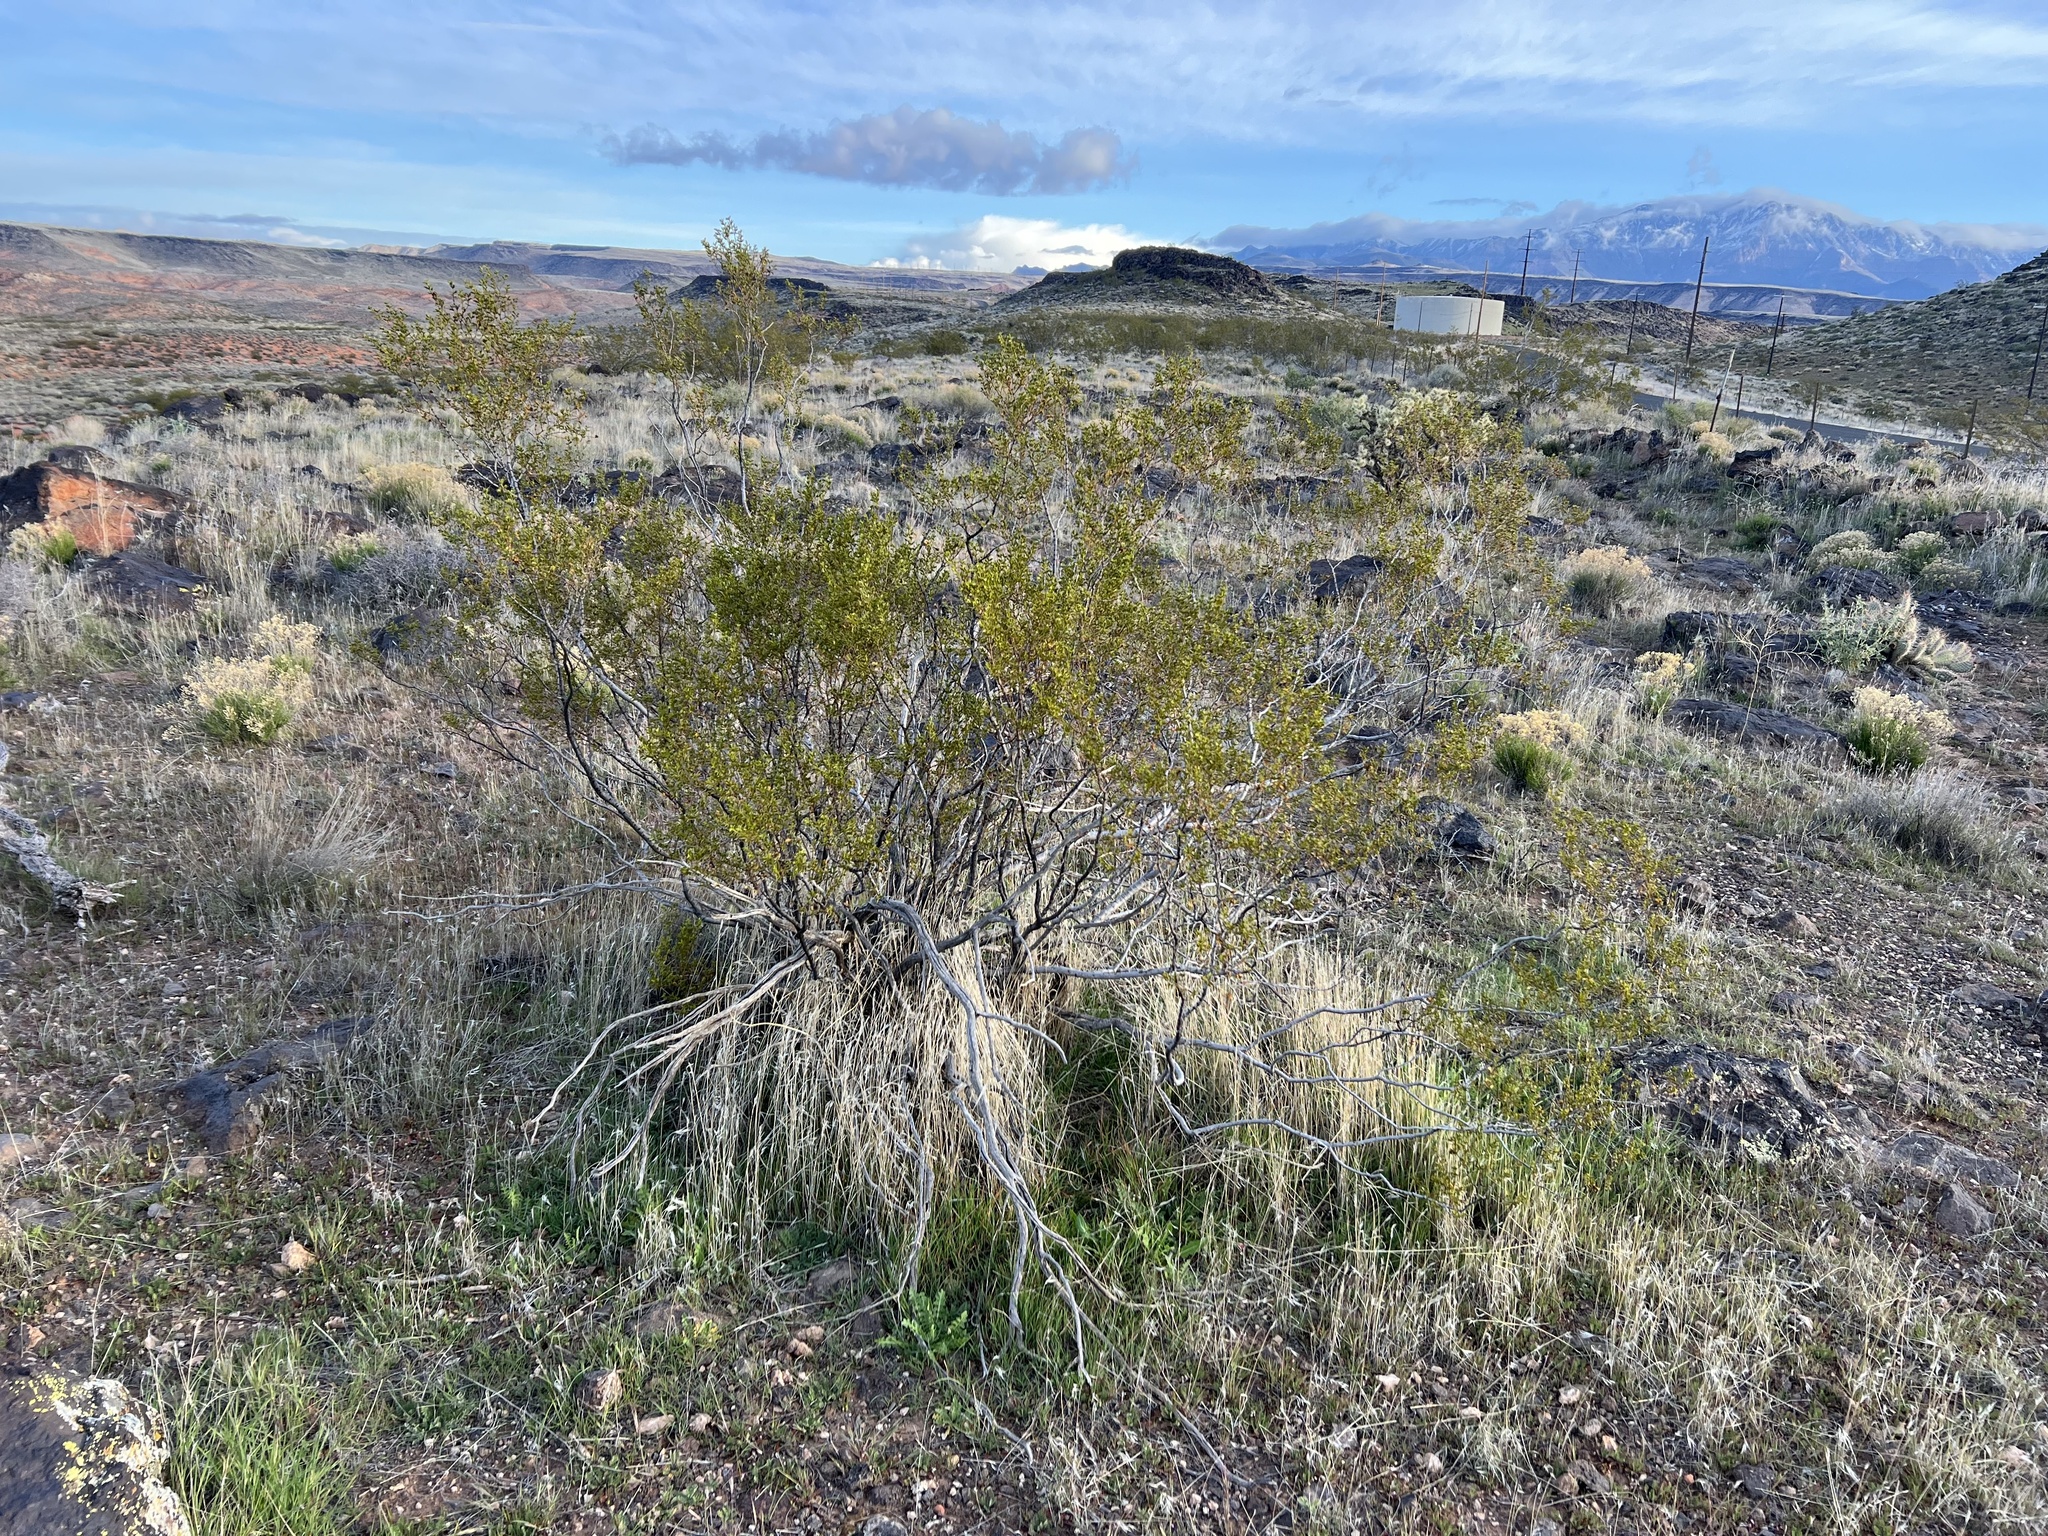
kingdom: Plantae
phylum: Tracheophyta
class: Magnoliopsida
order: Zygophyllales
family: Zygophyllaceae
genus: Larrea
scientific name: Larrea tridentata
